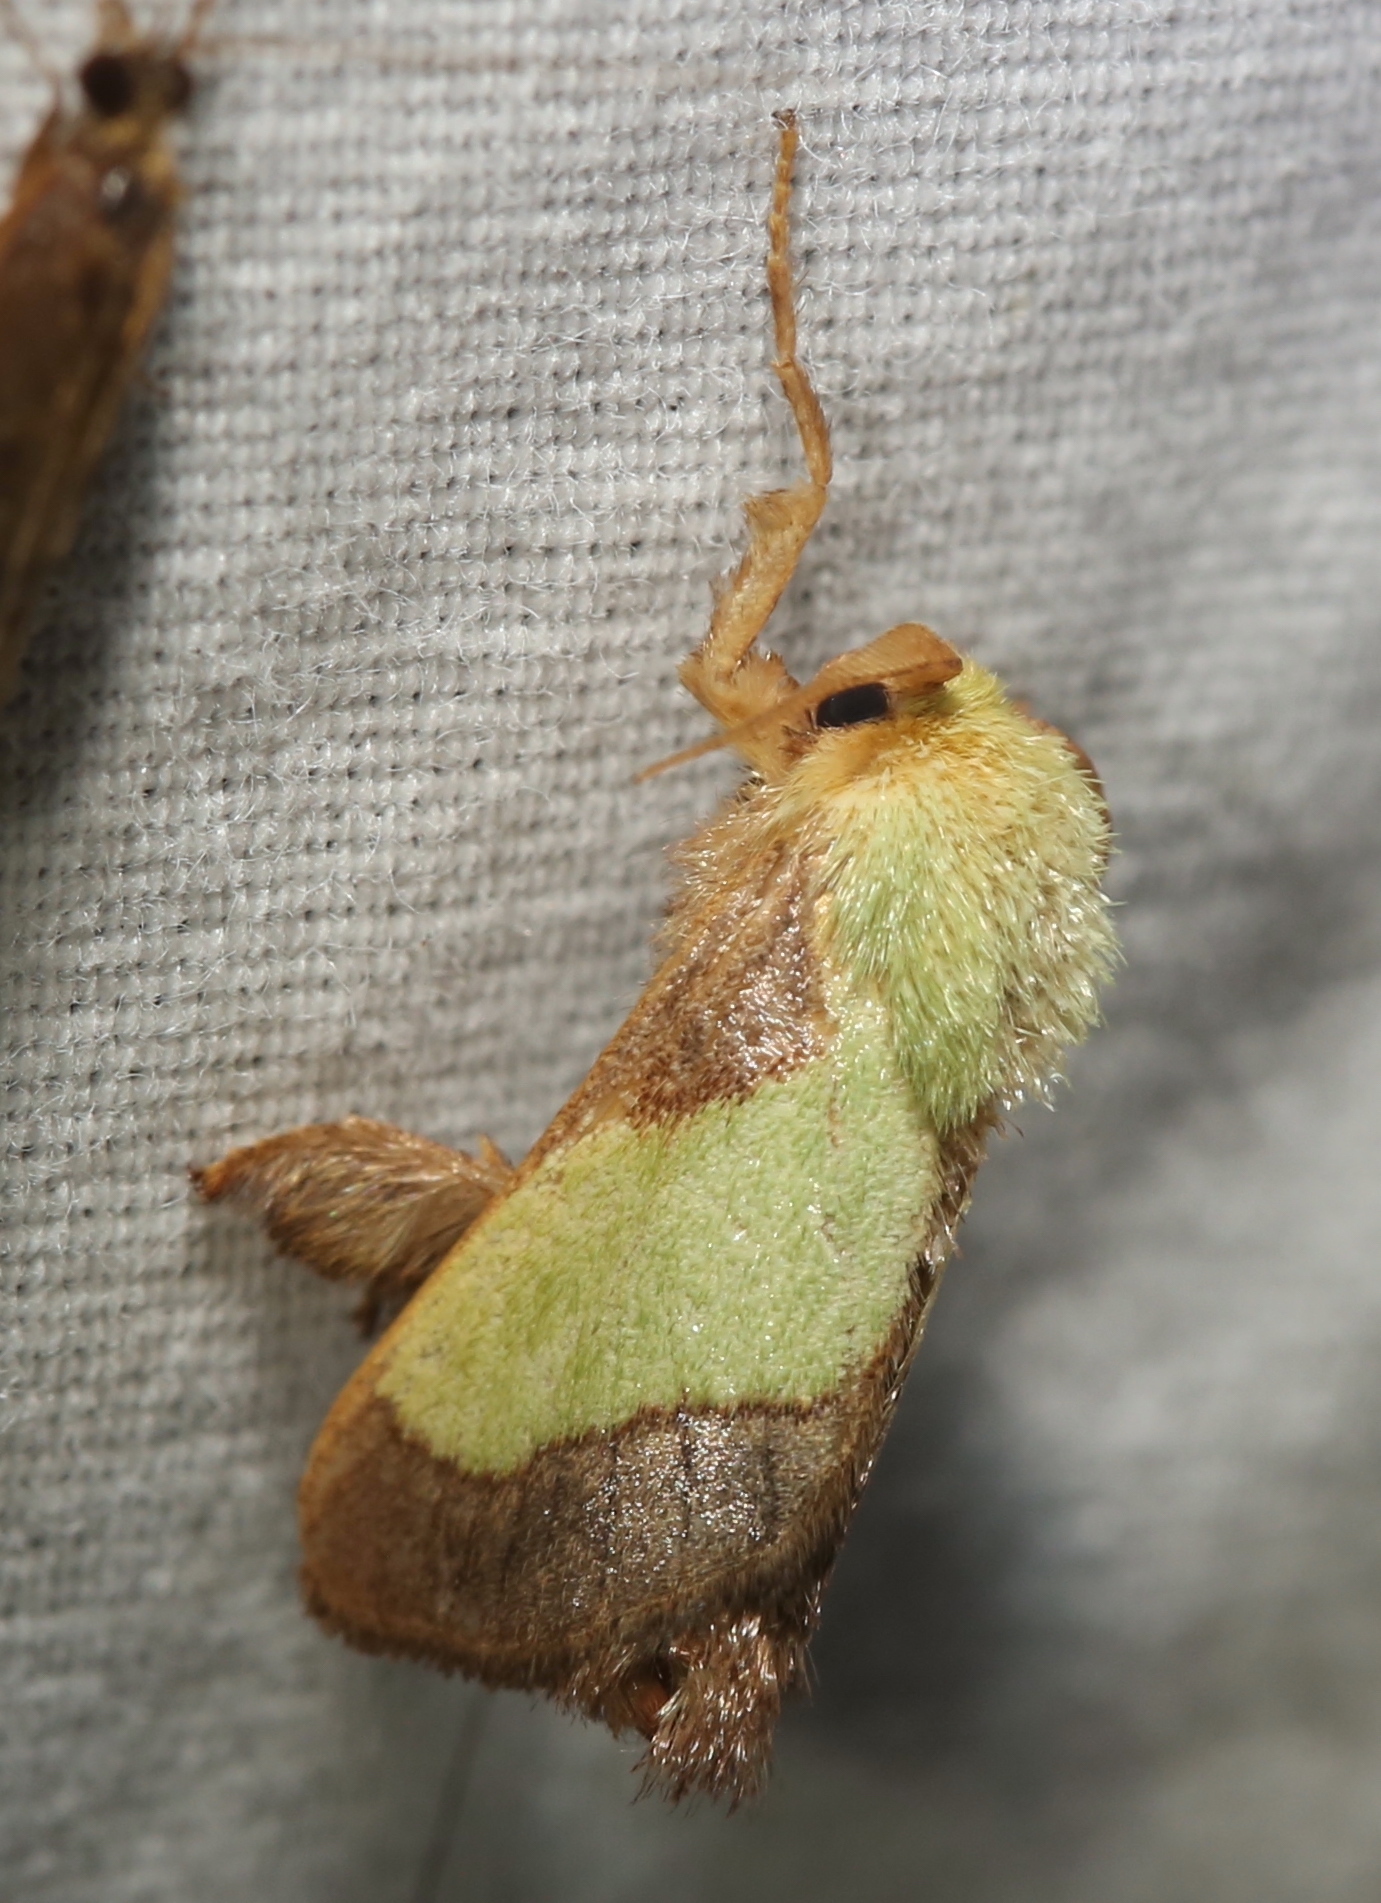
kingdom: Animalia
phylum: Arthropoda
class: Insecta
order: Lepidoptera
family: Limacodidae
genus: Parasa
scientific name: Parasa chloris
